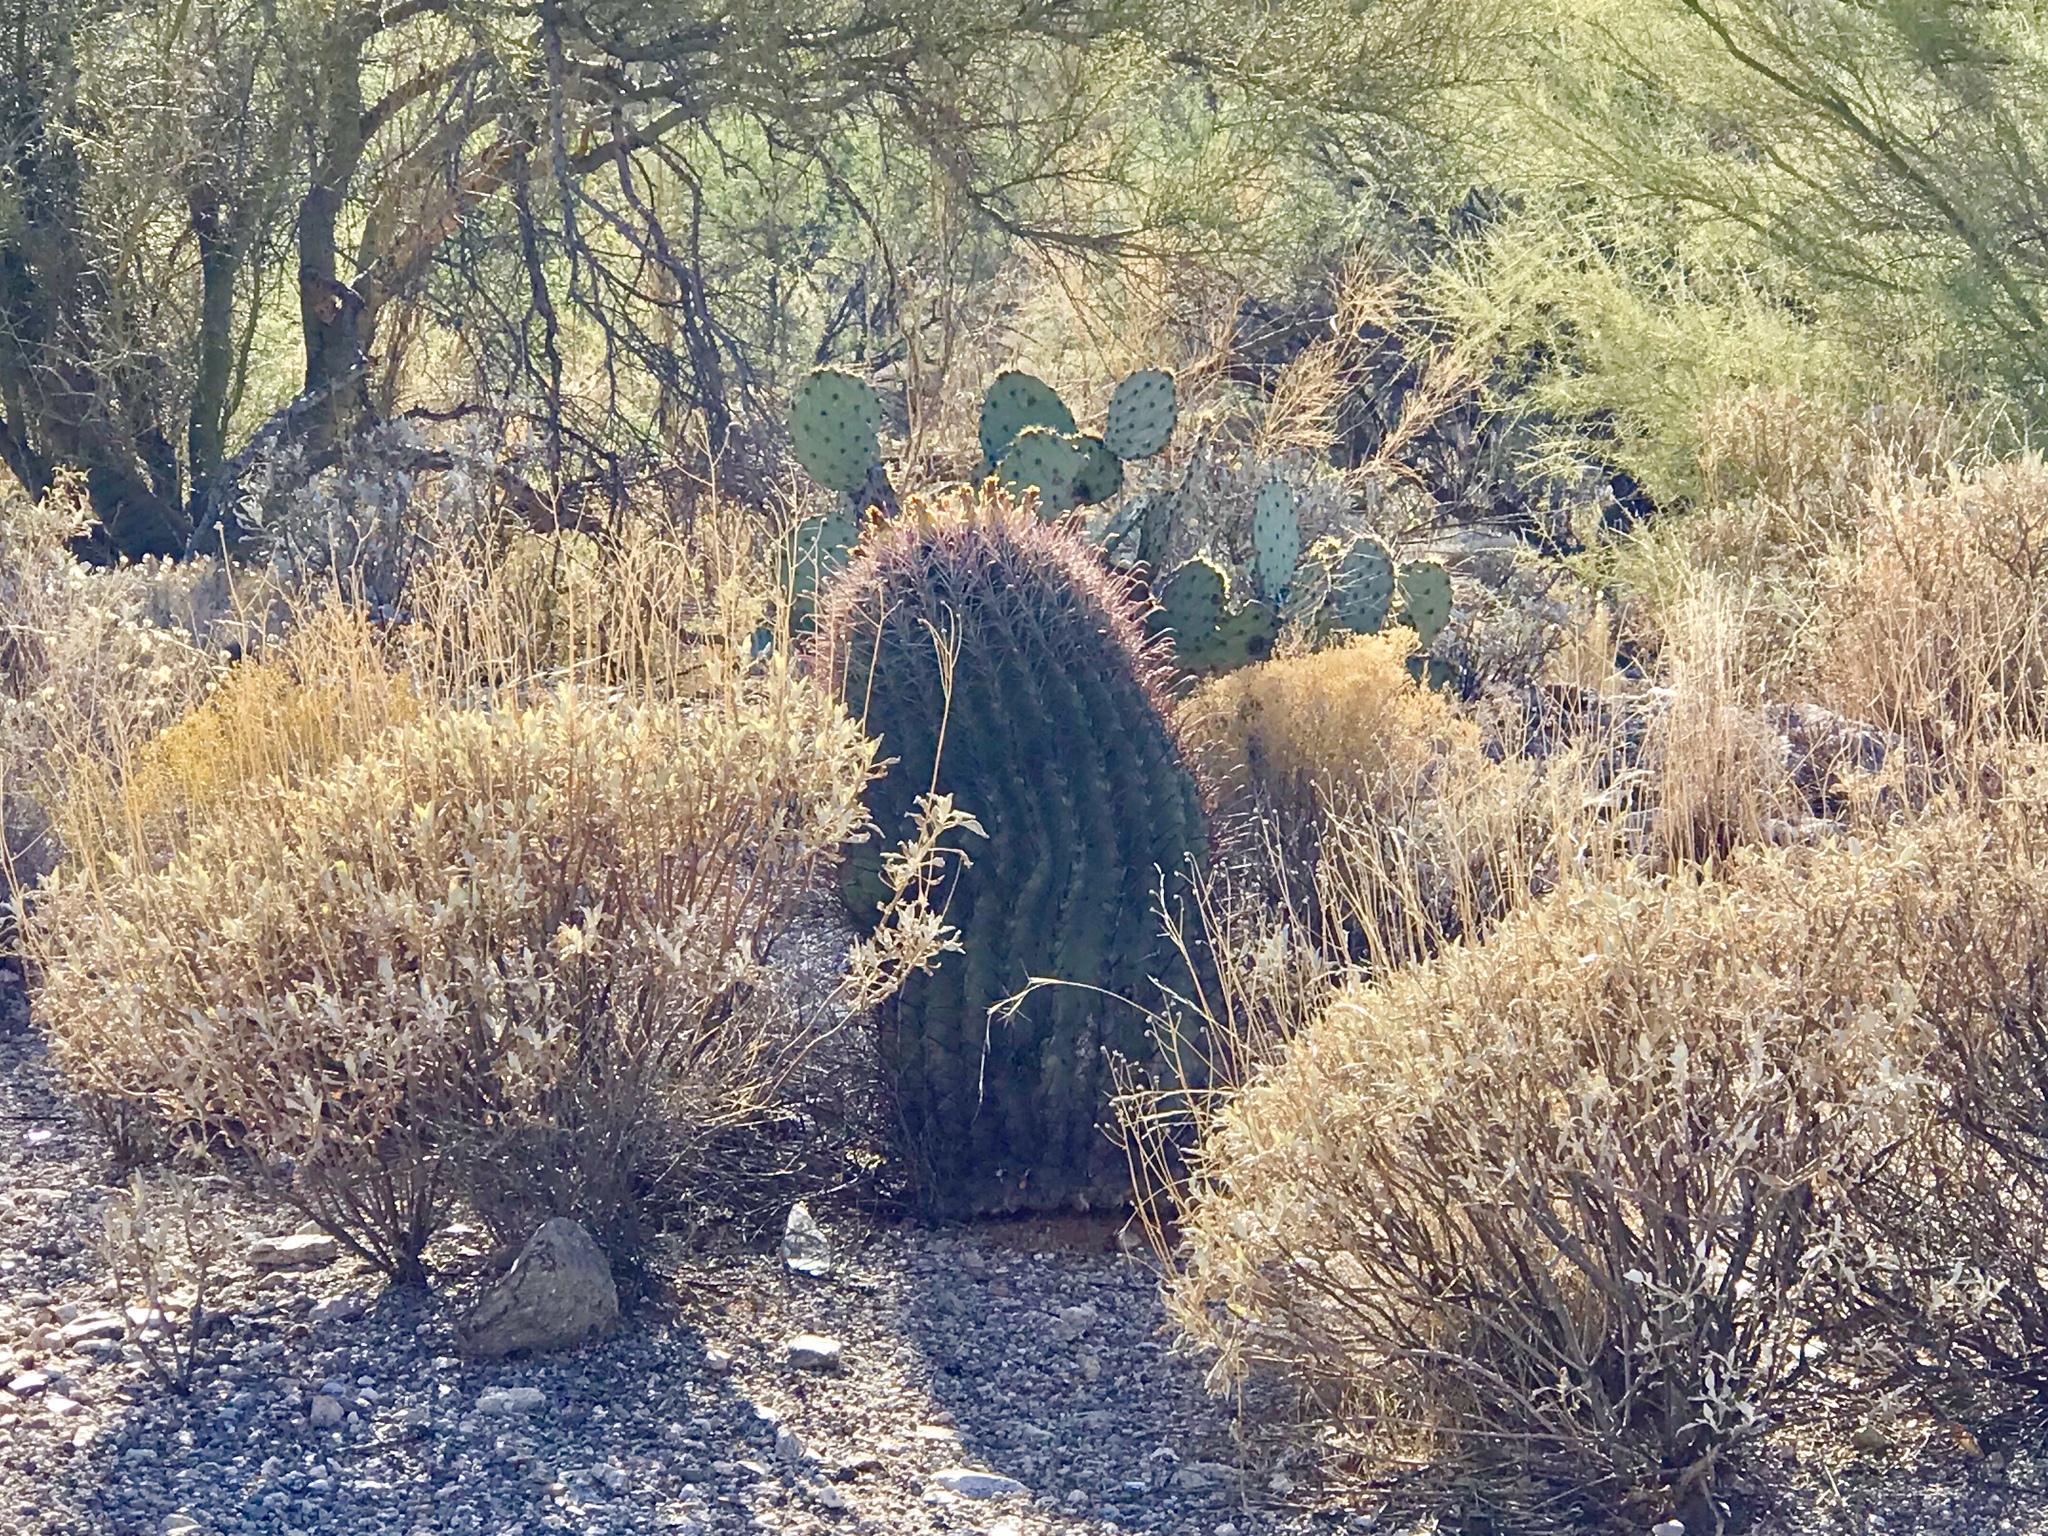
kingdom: Plantae
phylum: Tracheophyta
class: Magnoliopsida
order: Caryophyllales
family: Cactaceae
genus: Ferocactus
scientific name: Ferocactus wislizeni
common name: Candy barrel cactus
